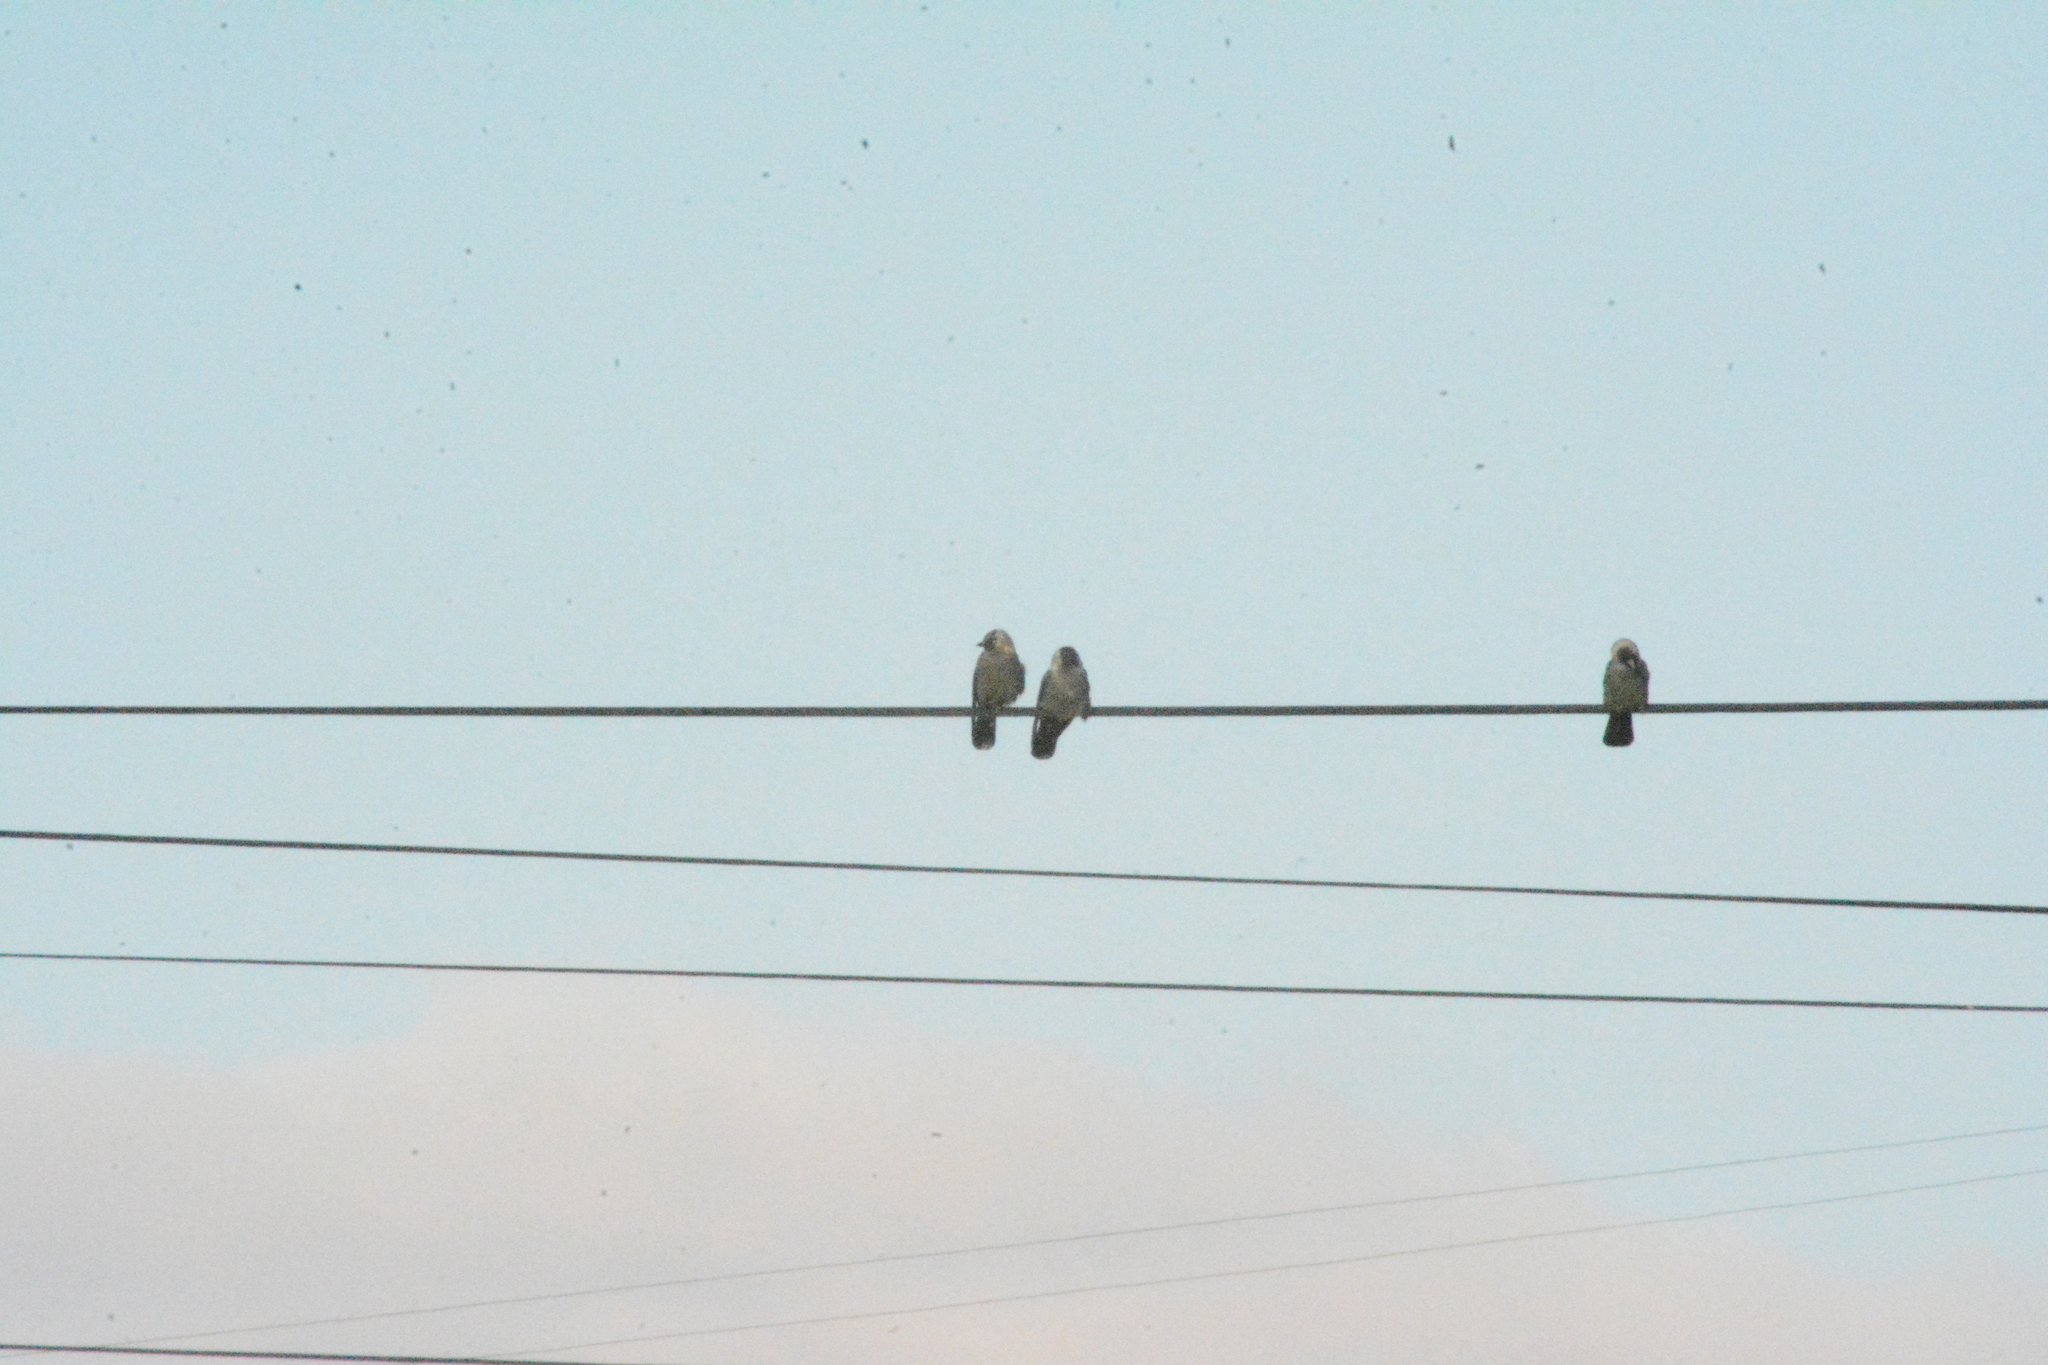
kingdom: Animalia
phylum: Chordata
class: Aves
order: Passeriformes
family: Corvidae
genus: Coloeus
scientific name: Coloeus monedula
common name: Western jackdaw
